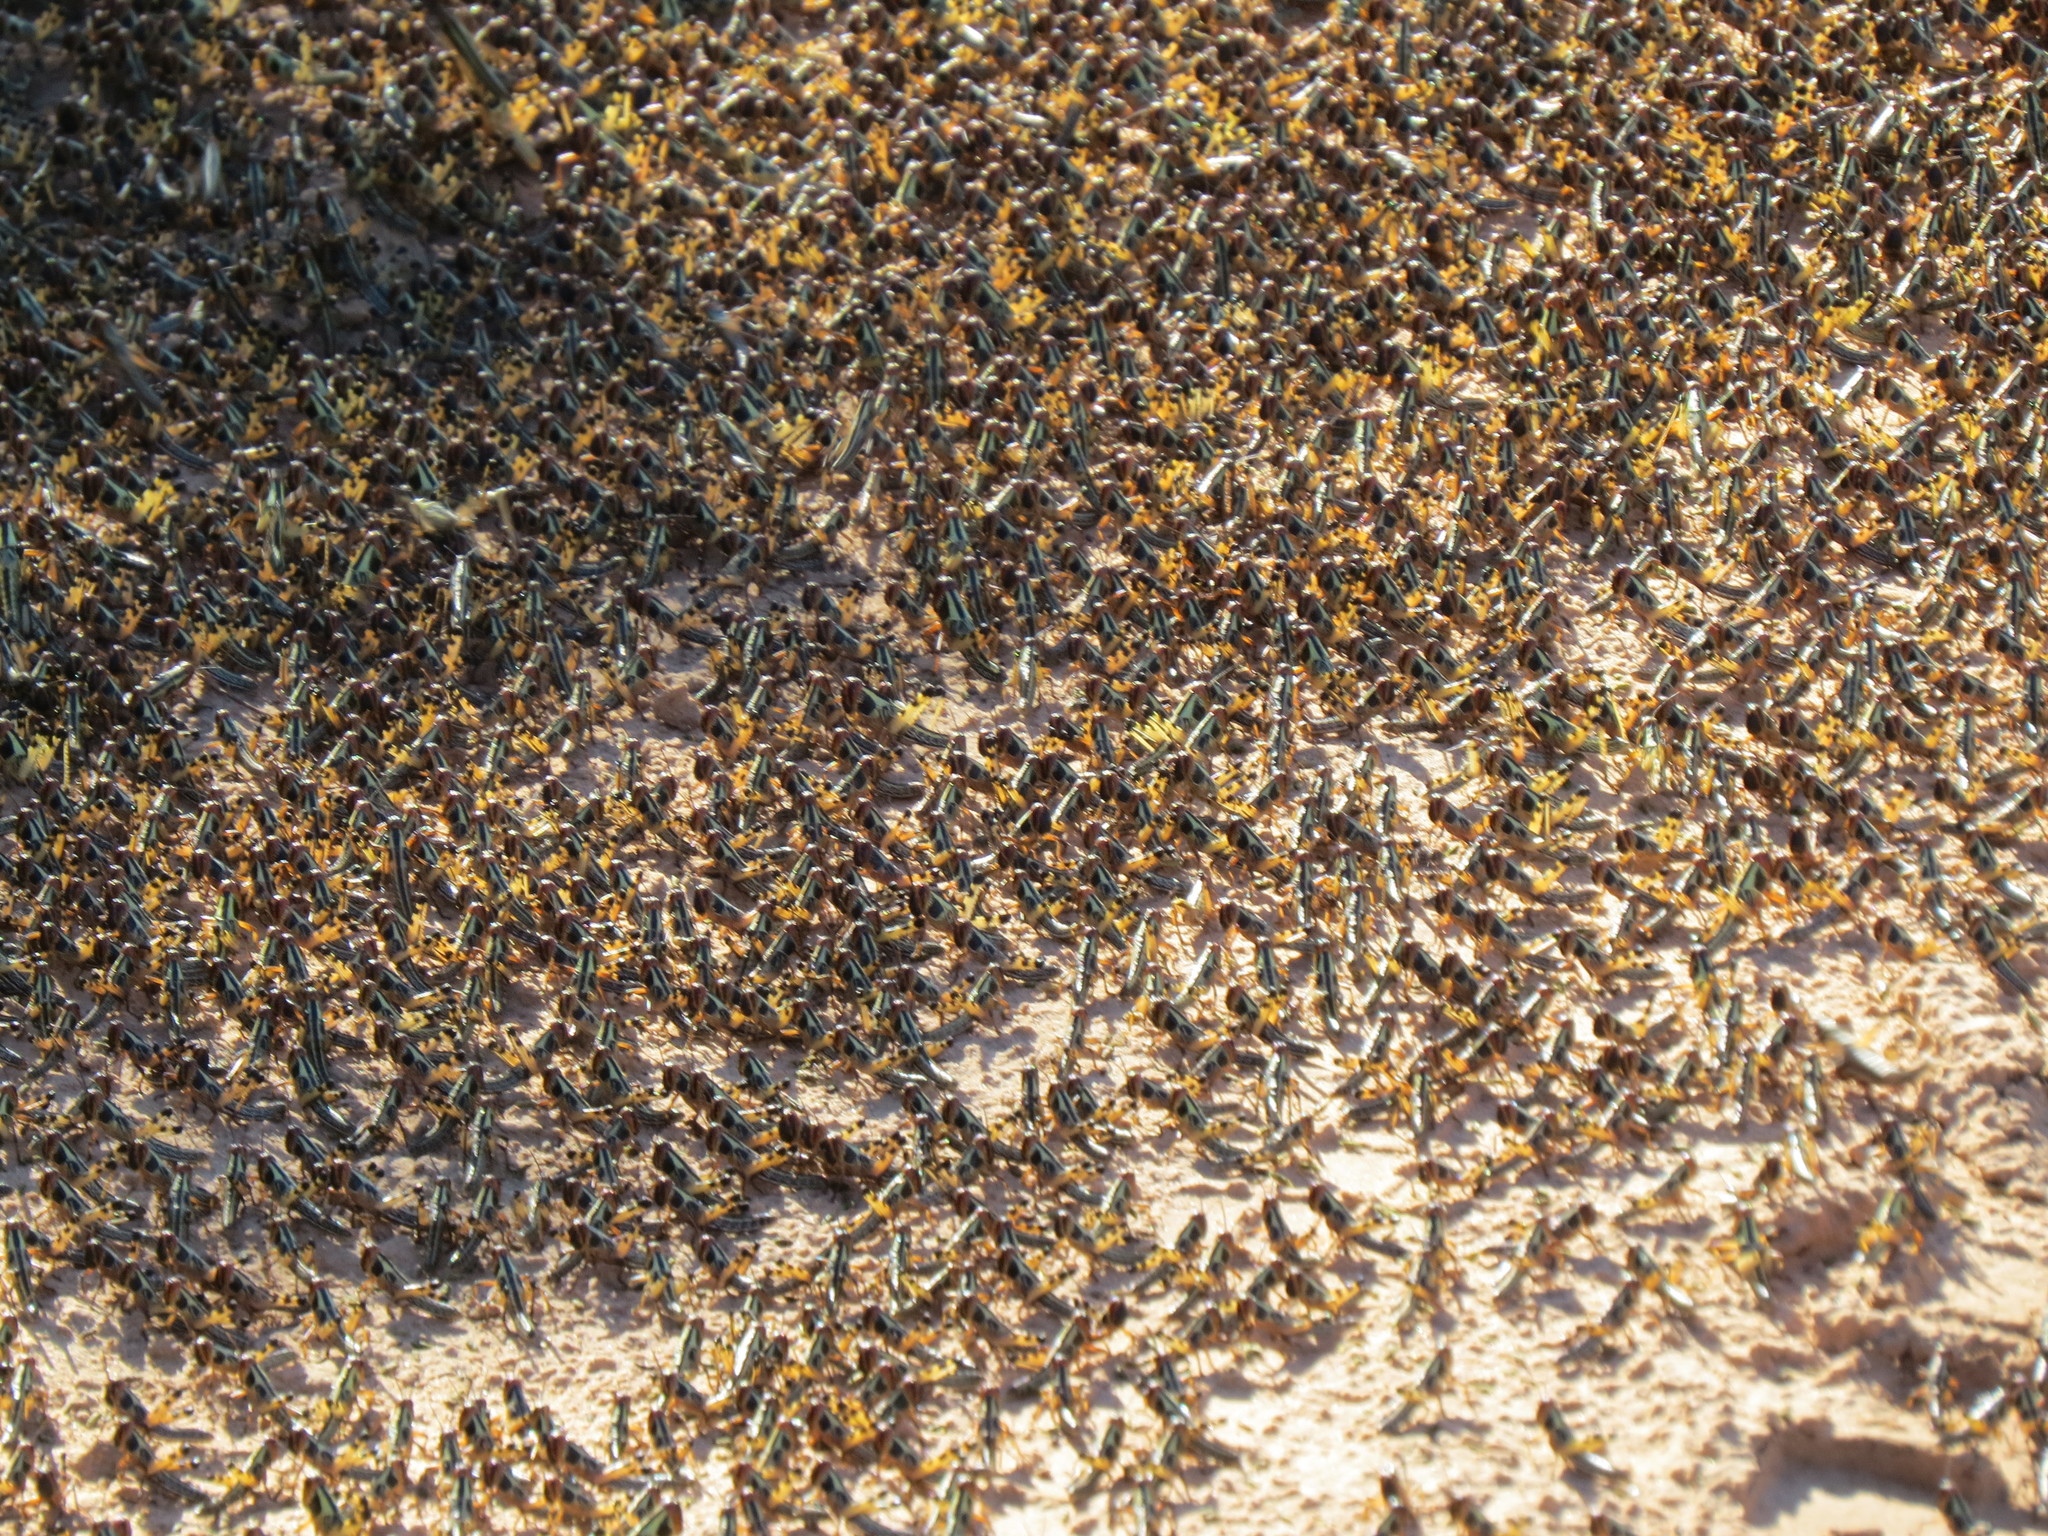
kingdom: Animalia
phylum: Arthropoda
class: Insecta
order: Orthoptera
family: Acrididae
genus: Schistocerca
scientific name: Schistocerca cancellata
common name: South american locust
